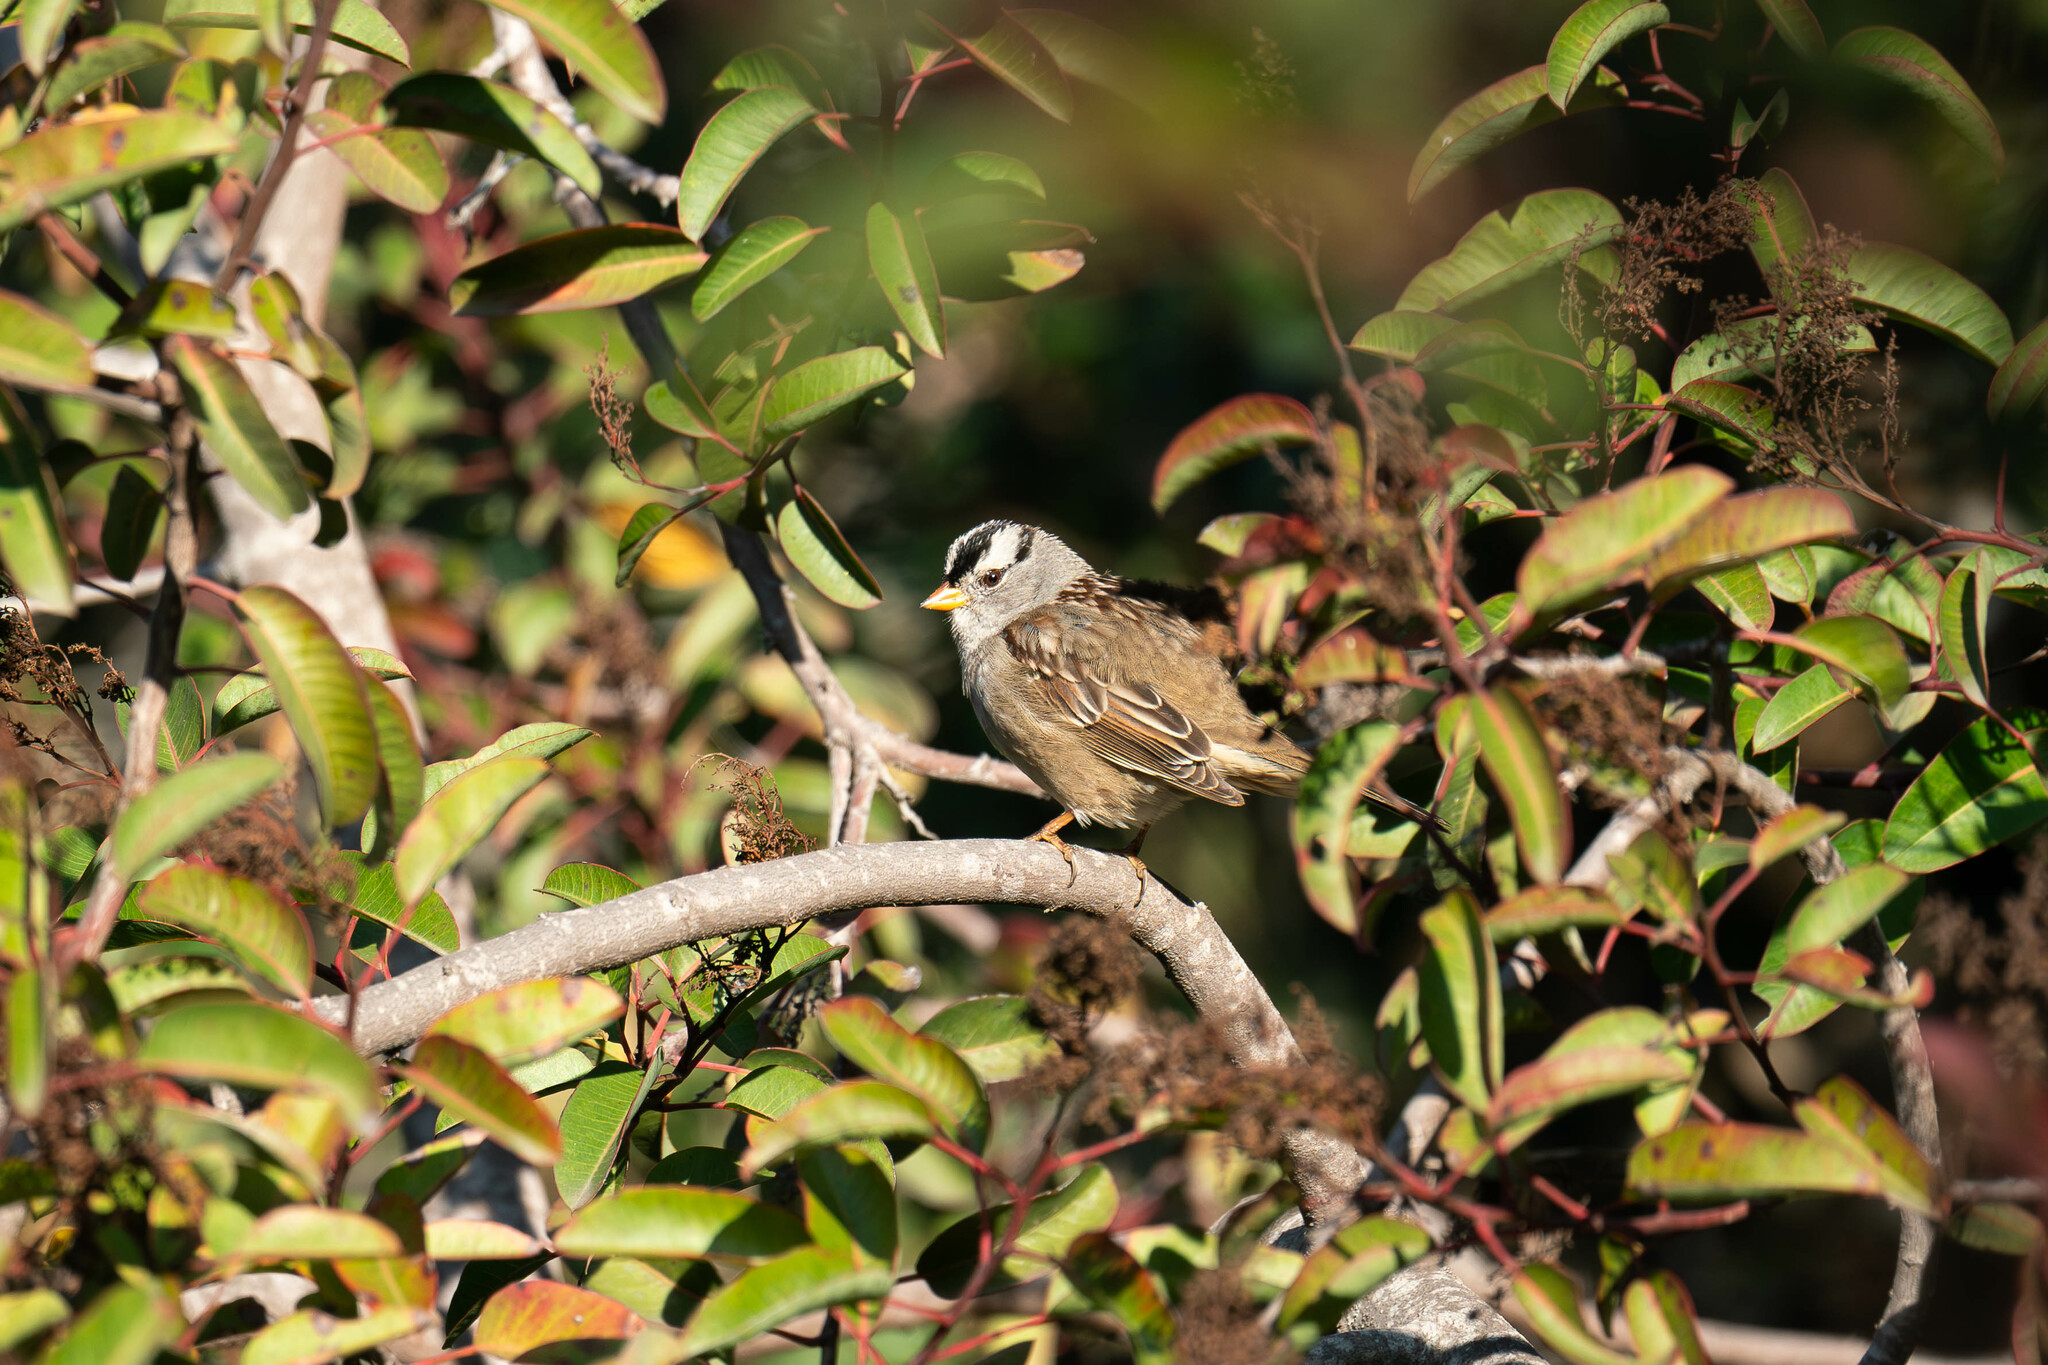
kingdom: Animalia
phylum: Chordata
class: Aves
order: Passeriformes
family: Passerellidae
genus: Zonotrichia
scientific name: Zonotrichia leucophrys
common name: White-crowned sparrow
